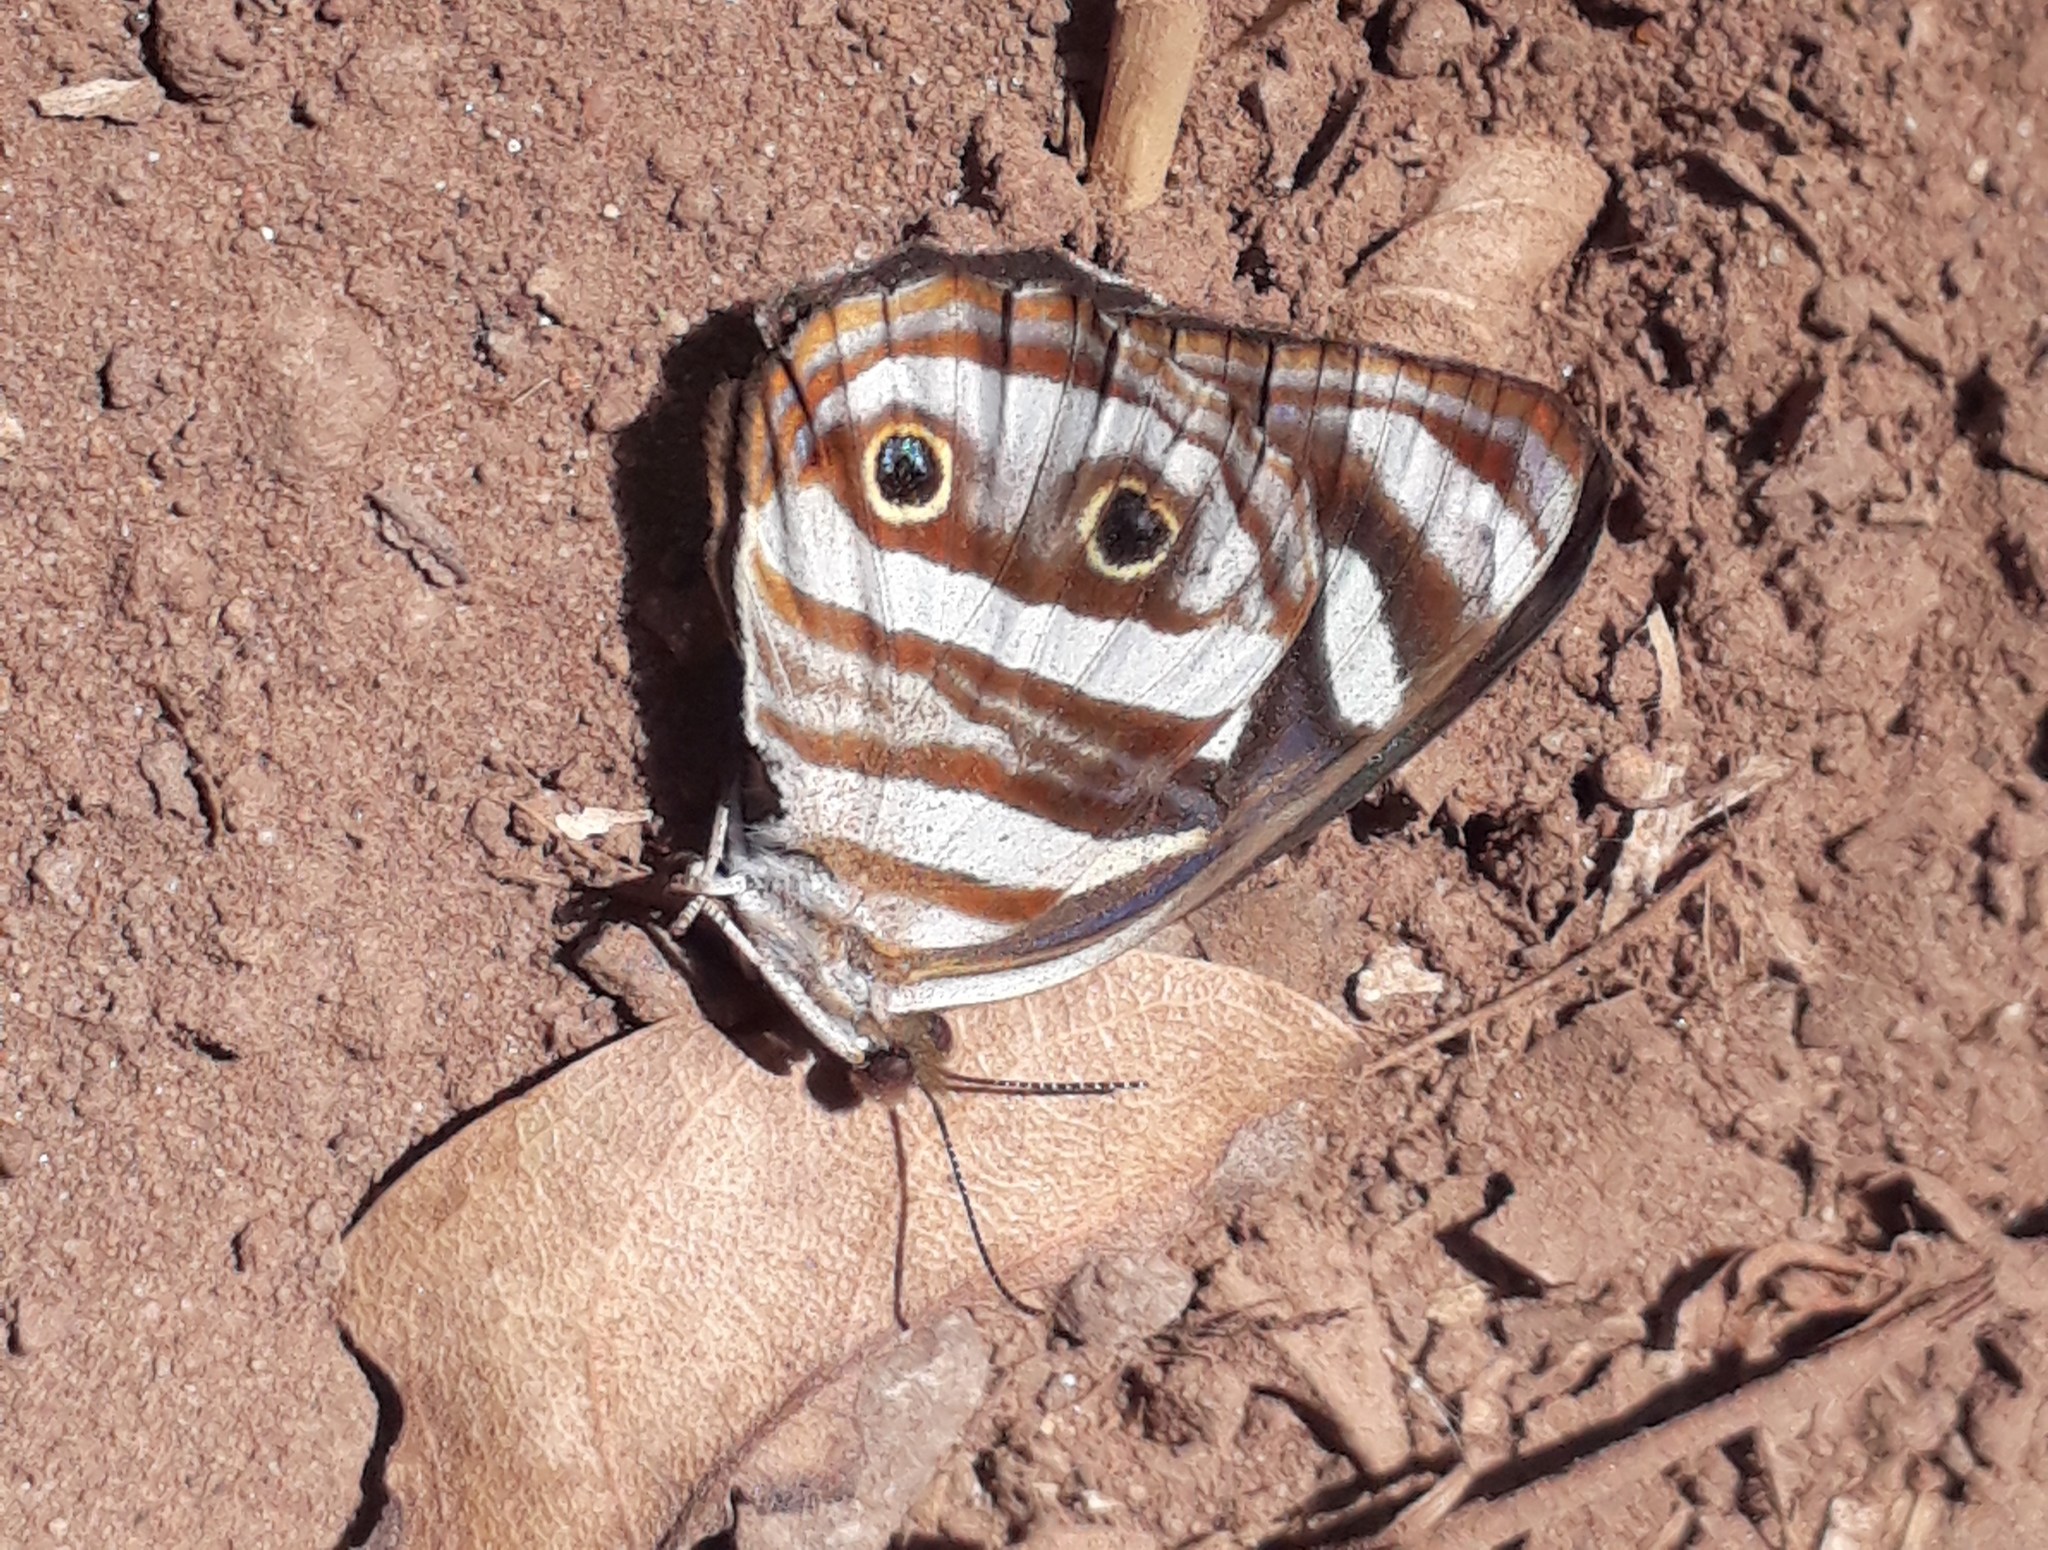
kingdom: Animalia
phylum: Arthropoda
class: Insecta
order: Lepidoptera
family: Nymphalidae
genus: Dynamine
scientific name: Dynamine mylitta
